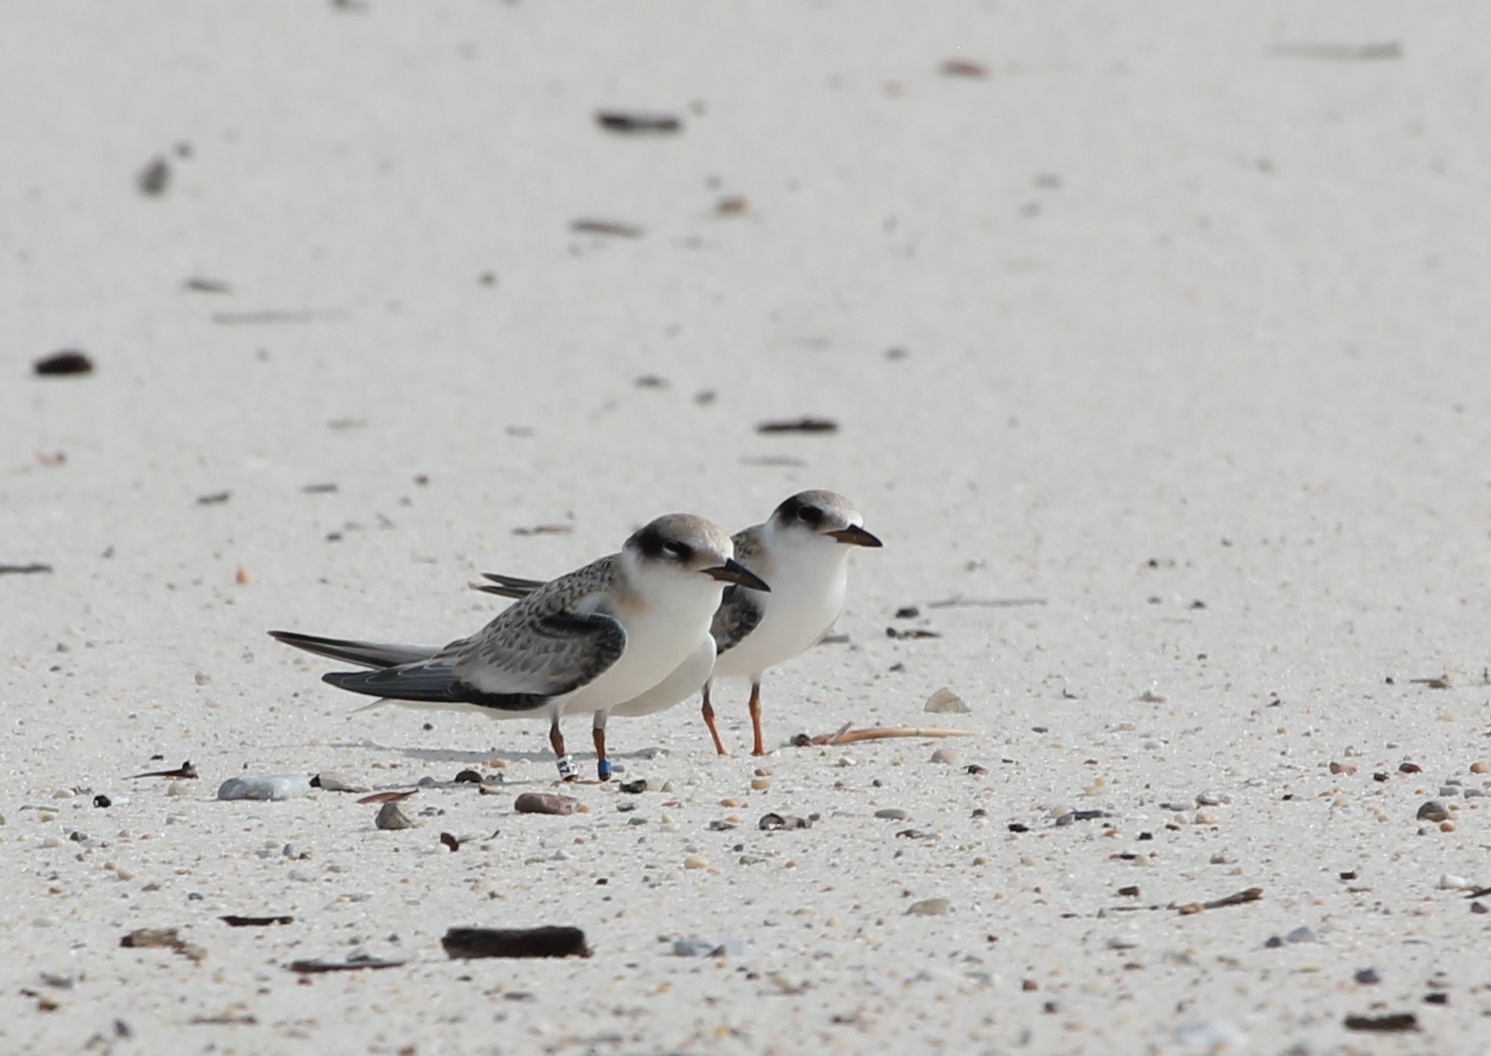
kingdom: Animalia
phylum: Chordata
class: Aves
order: Charadriiformes
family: Laridae
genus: Sternula
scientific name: Sternula antillarum
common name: Least tern
